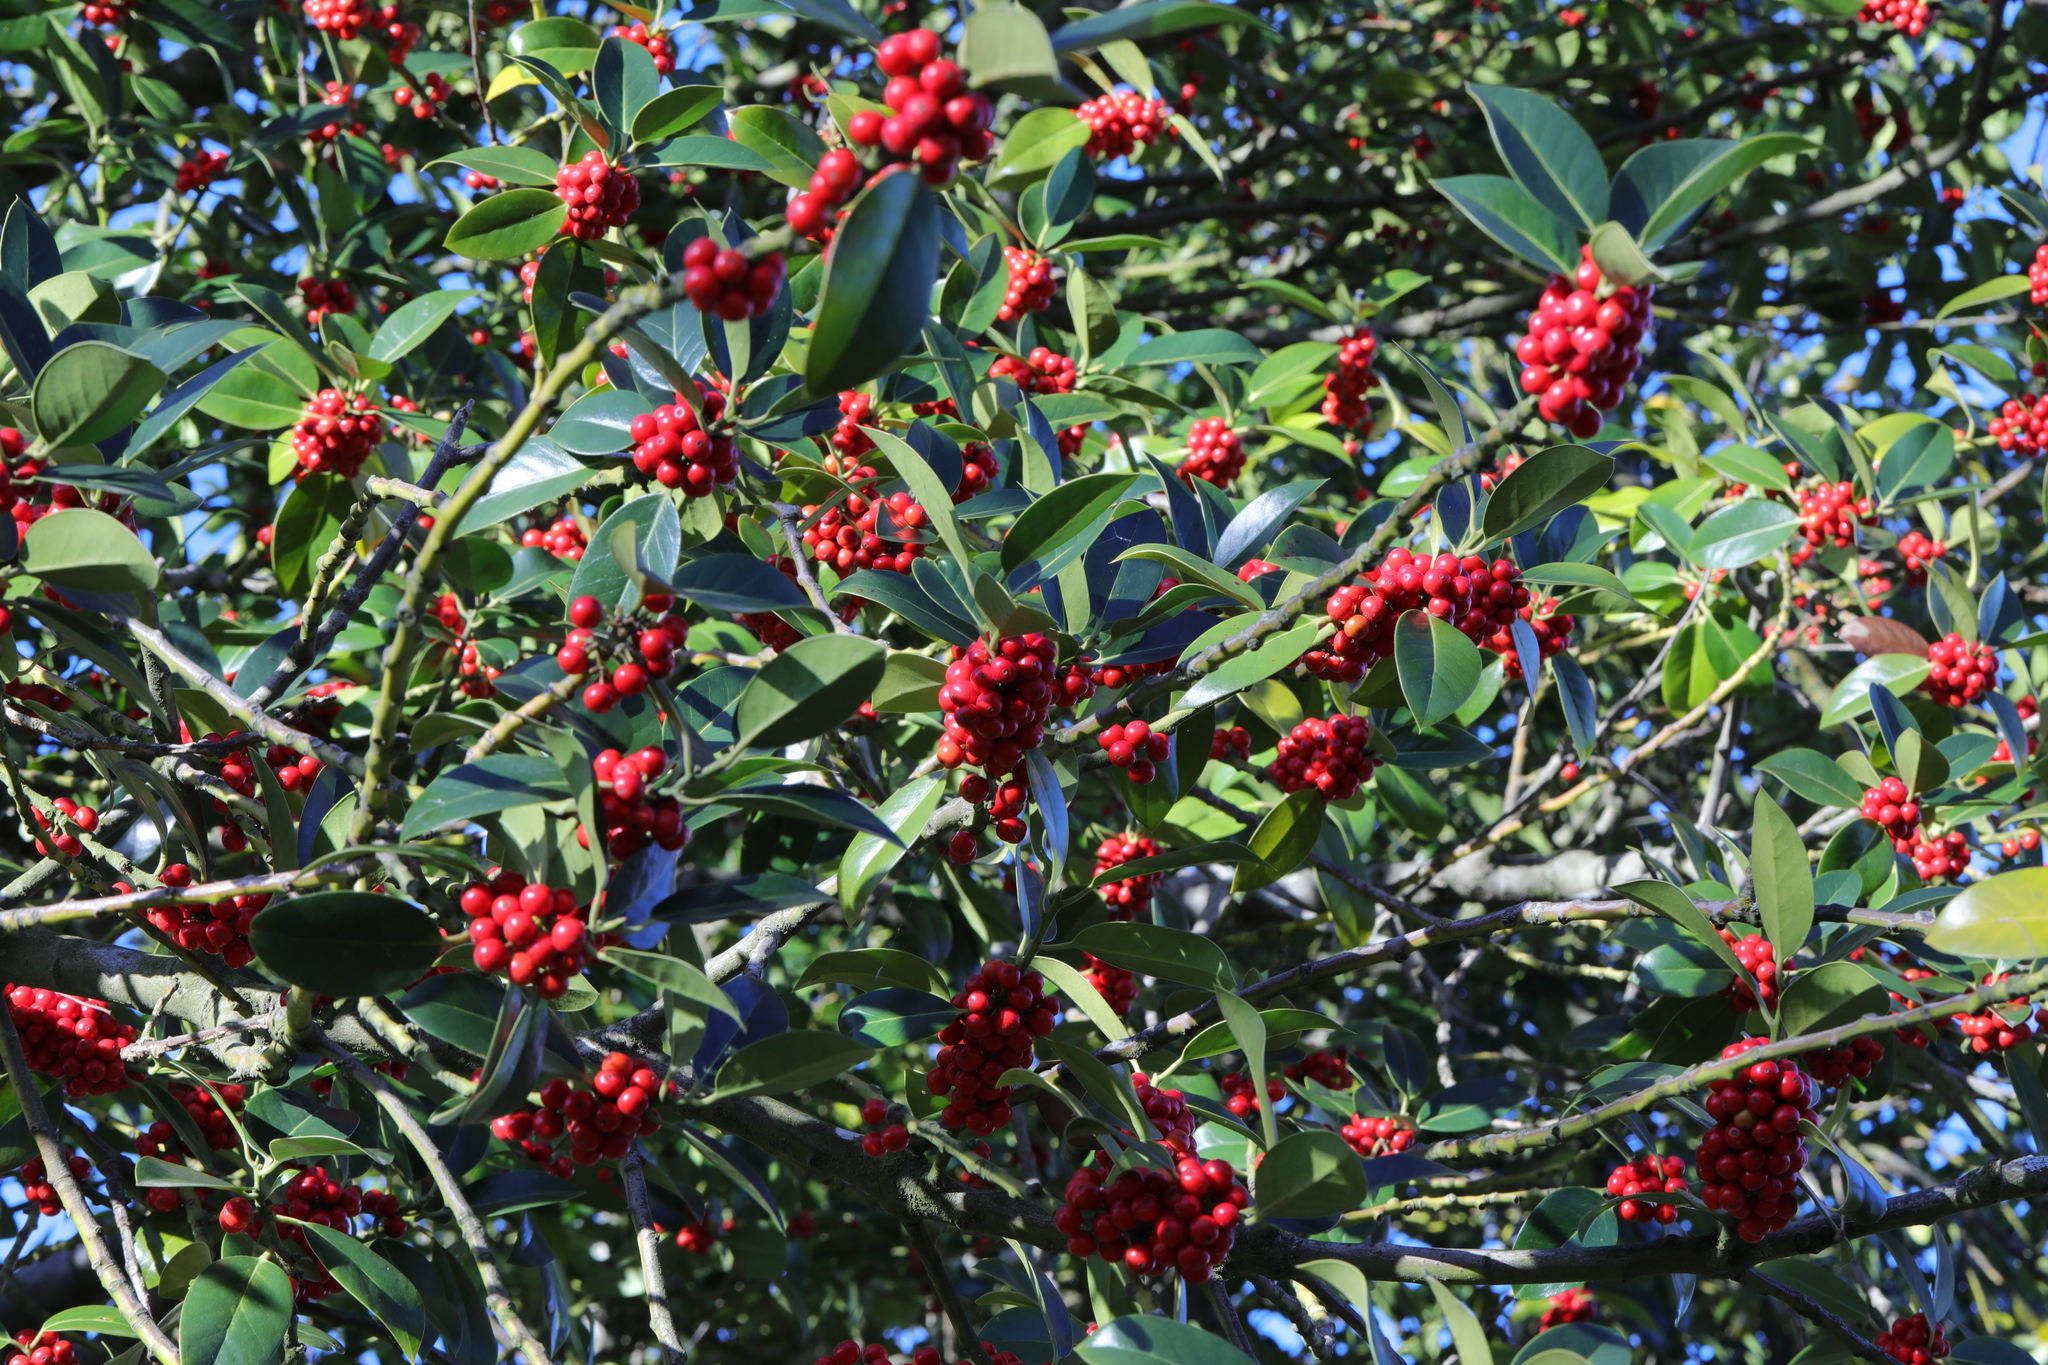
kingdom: Plantae
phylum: Tracheophyta
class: Magnoliopsida
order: Aquifoliales
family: Aquifoliaceae
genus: Ilex
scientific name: Ilex aquifolium
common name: English holly
